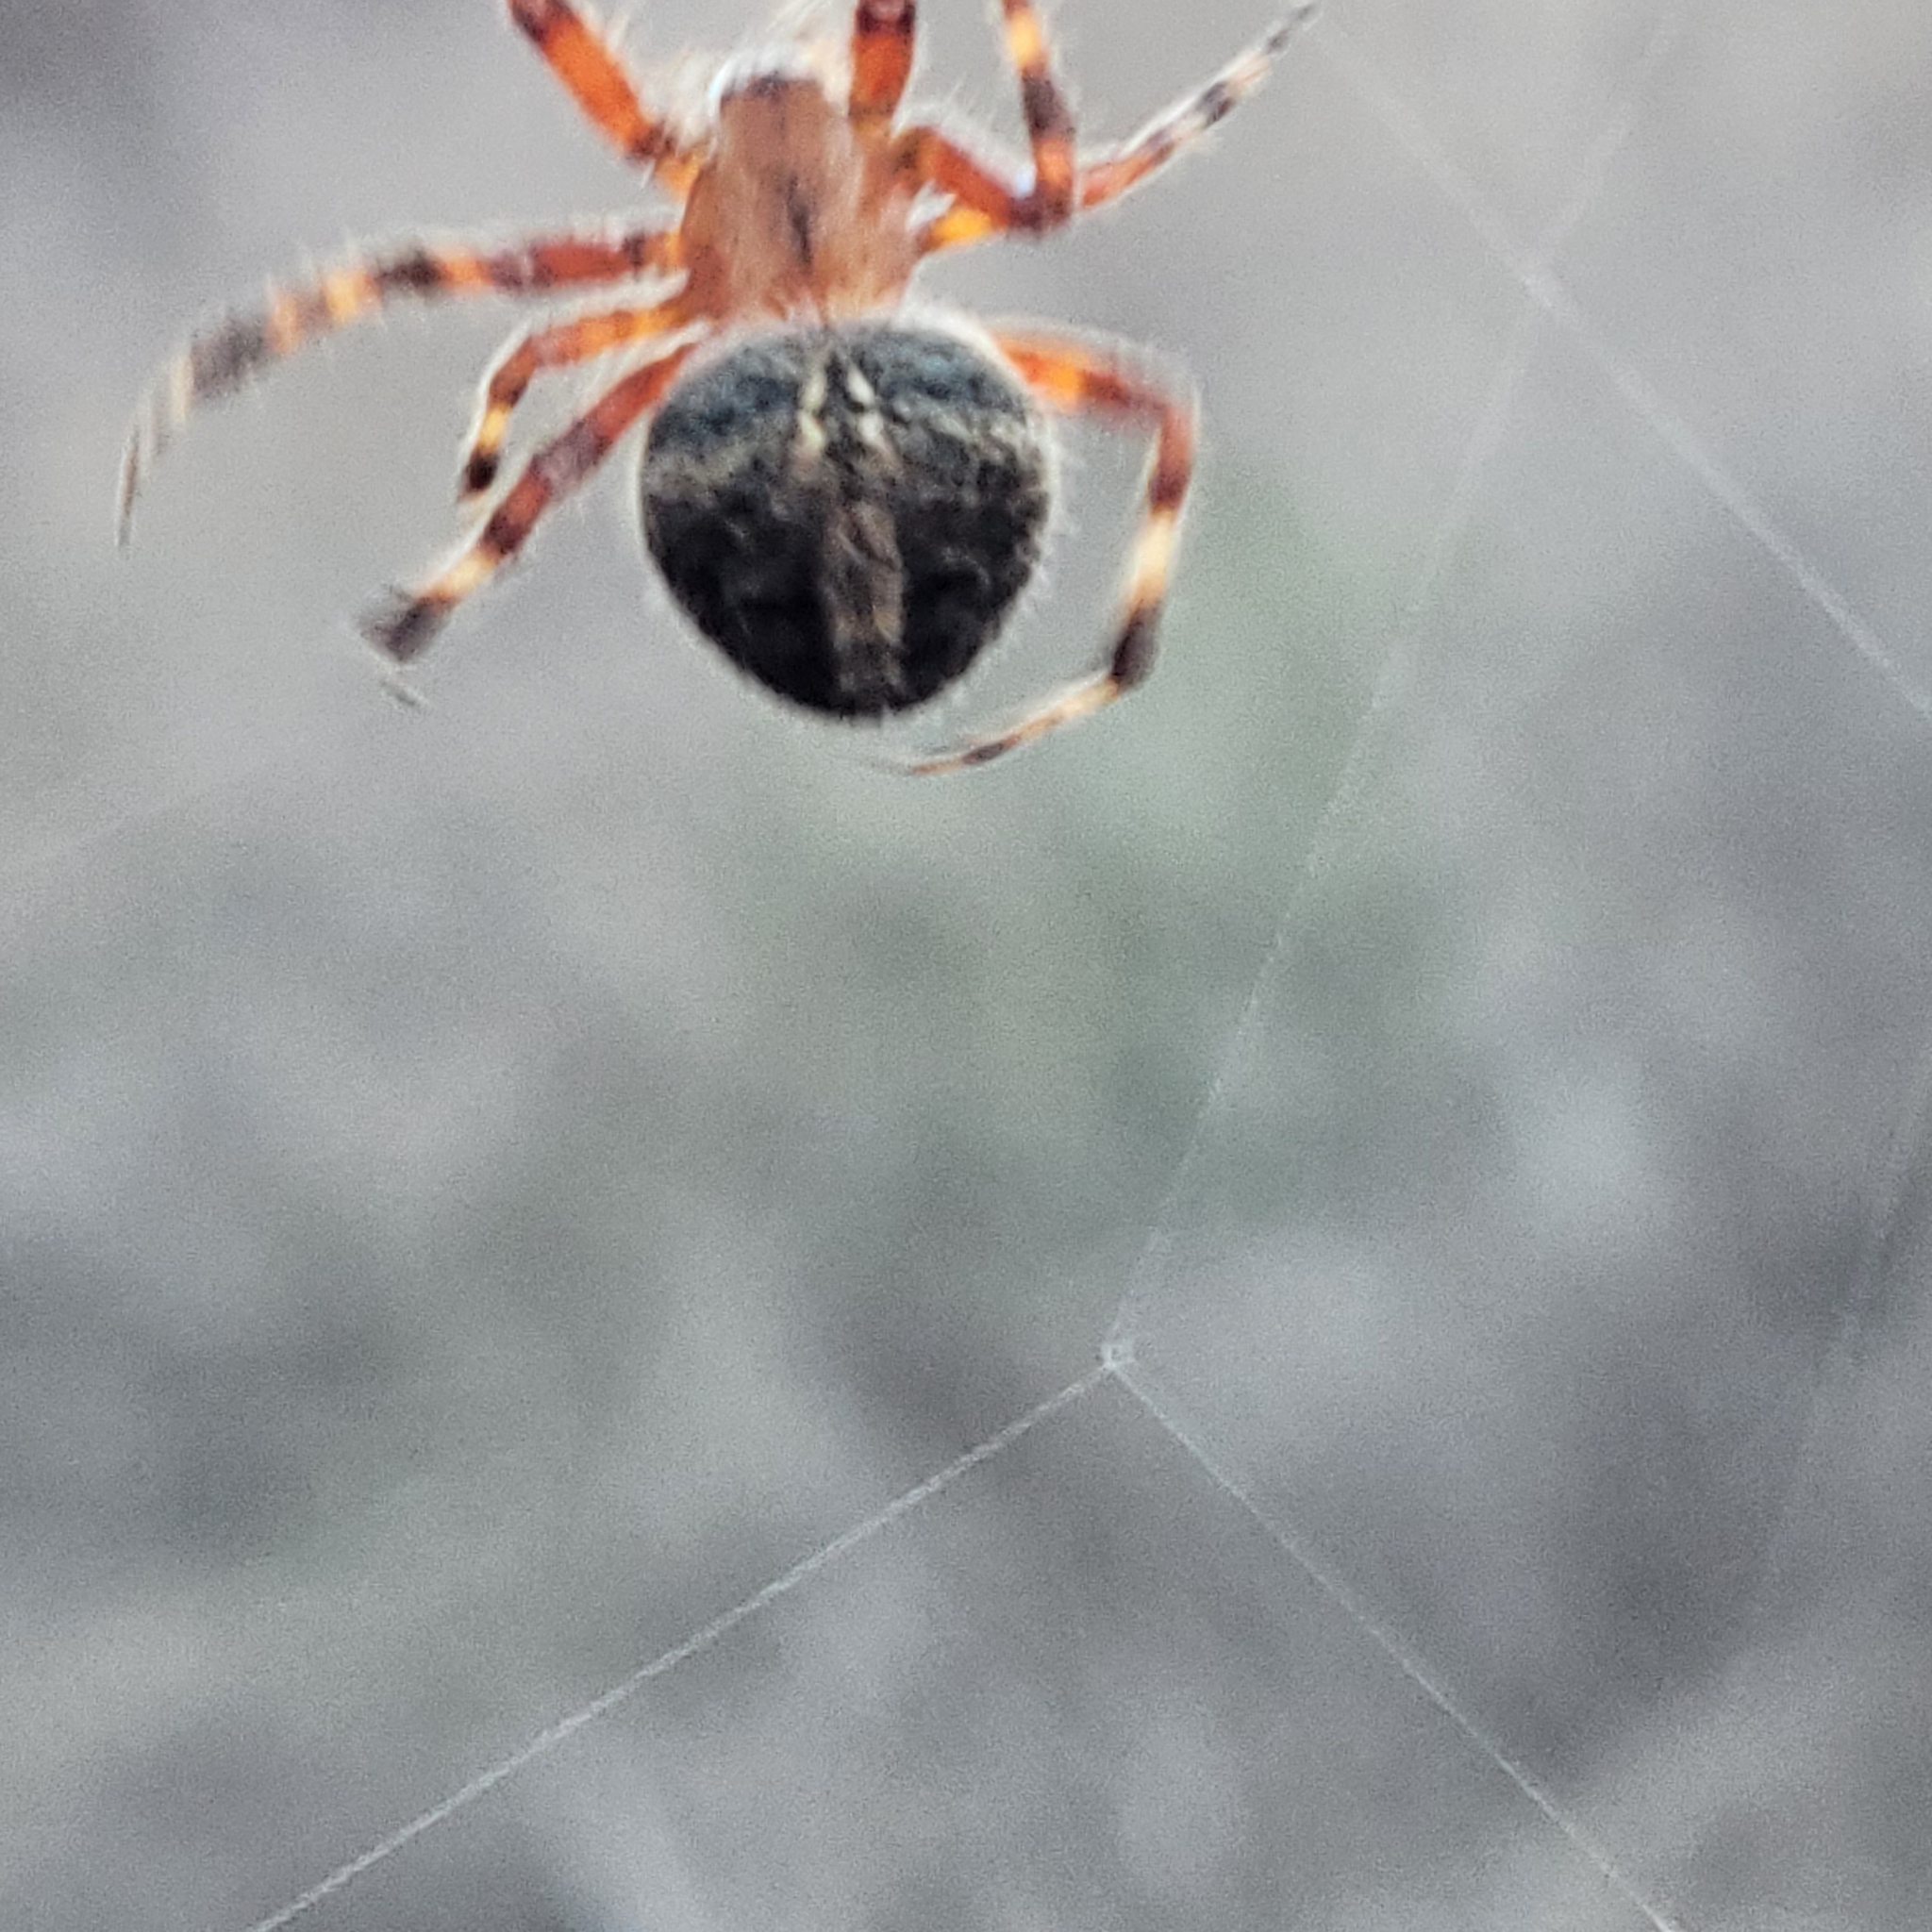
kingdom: Animalia
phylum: Arthropoda
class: Arachnida
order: Araneae
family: Araneidae
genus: Neoscona
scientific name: Neoscona crucifera
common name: Spotted orbweaver
